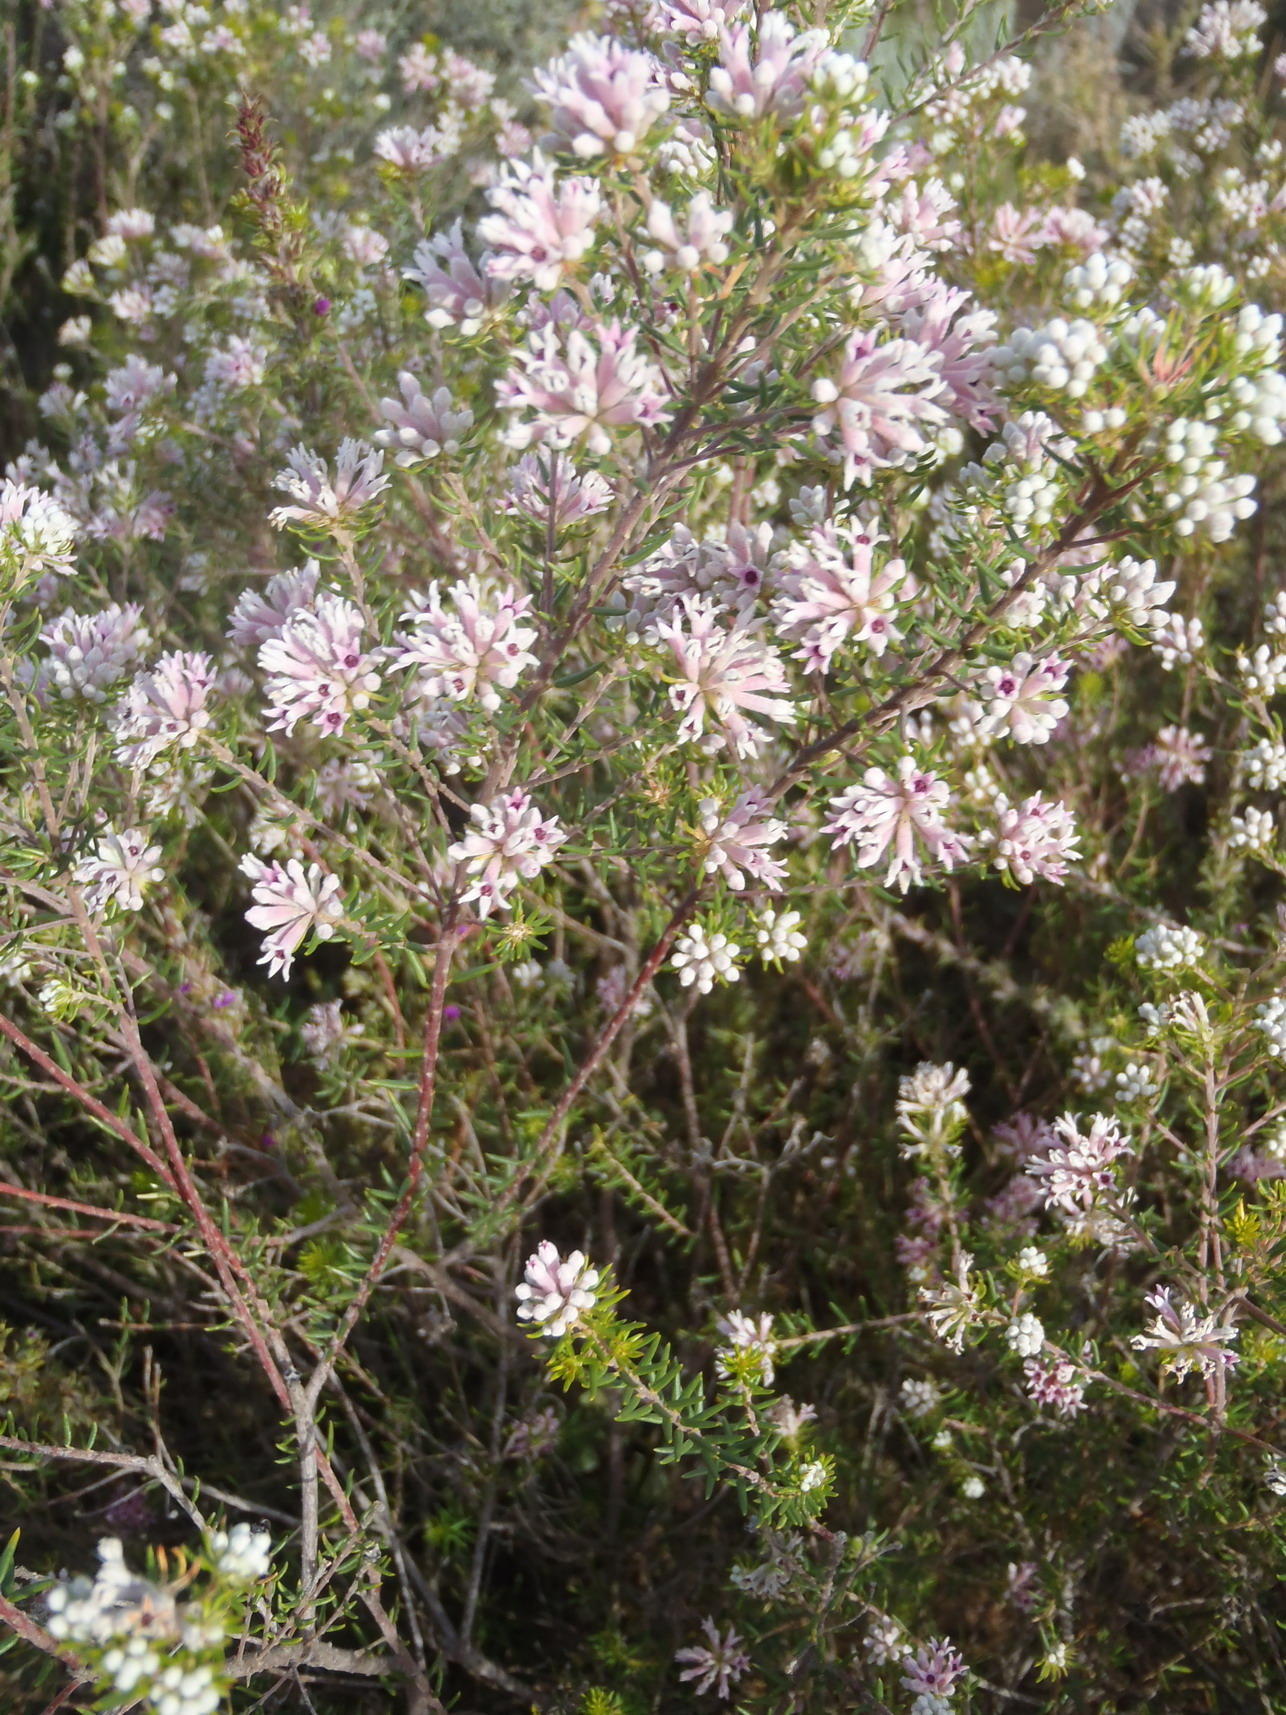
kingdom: Plantae
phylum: Tracheophyta
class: Magnoliopsida
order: Rosales
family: Rhamnaceae
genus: Phylica
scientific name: Phylica lachneaeoides
